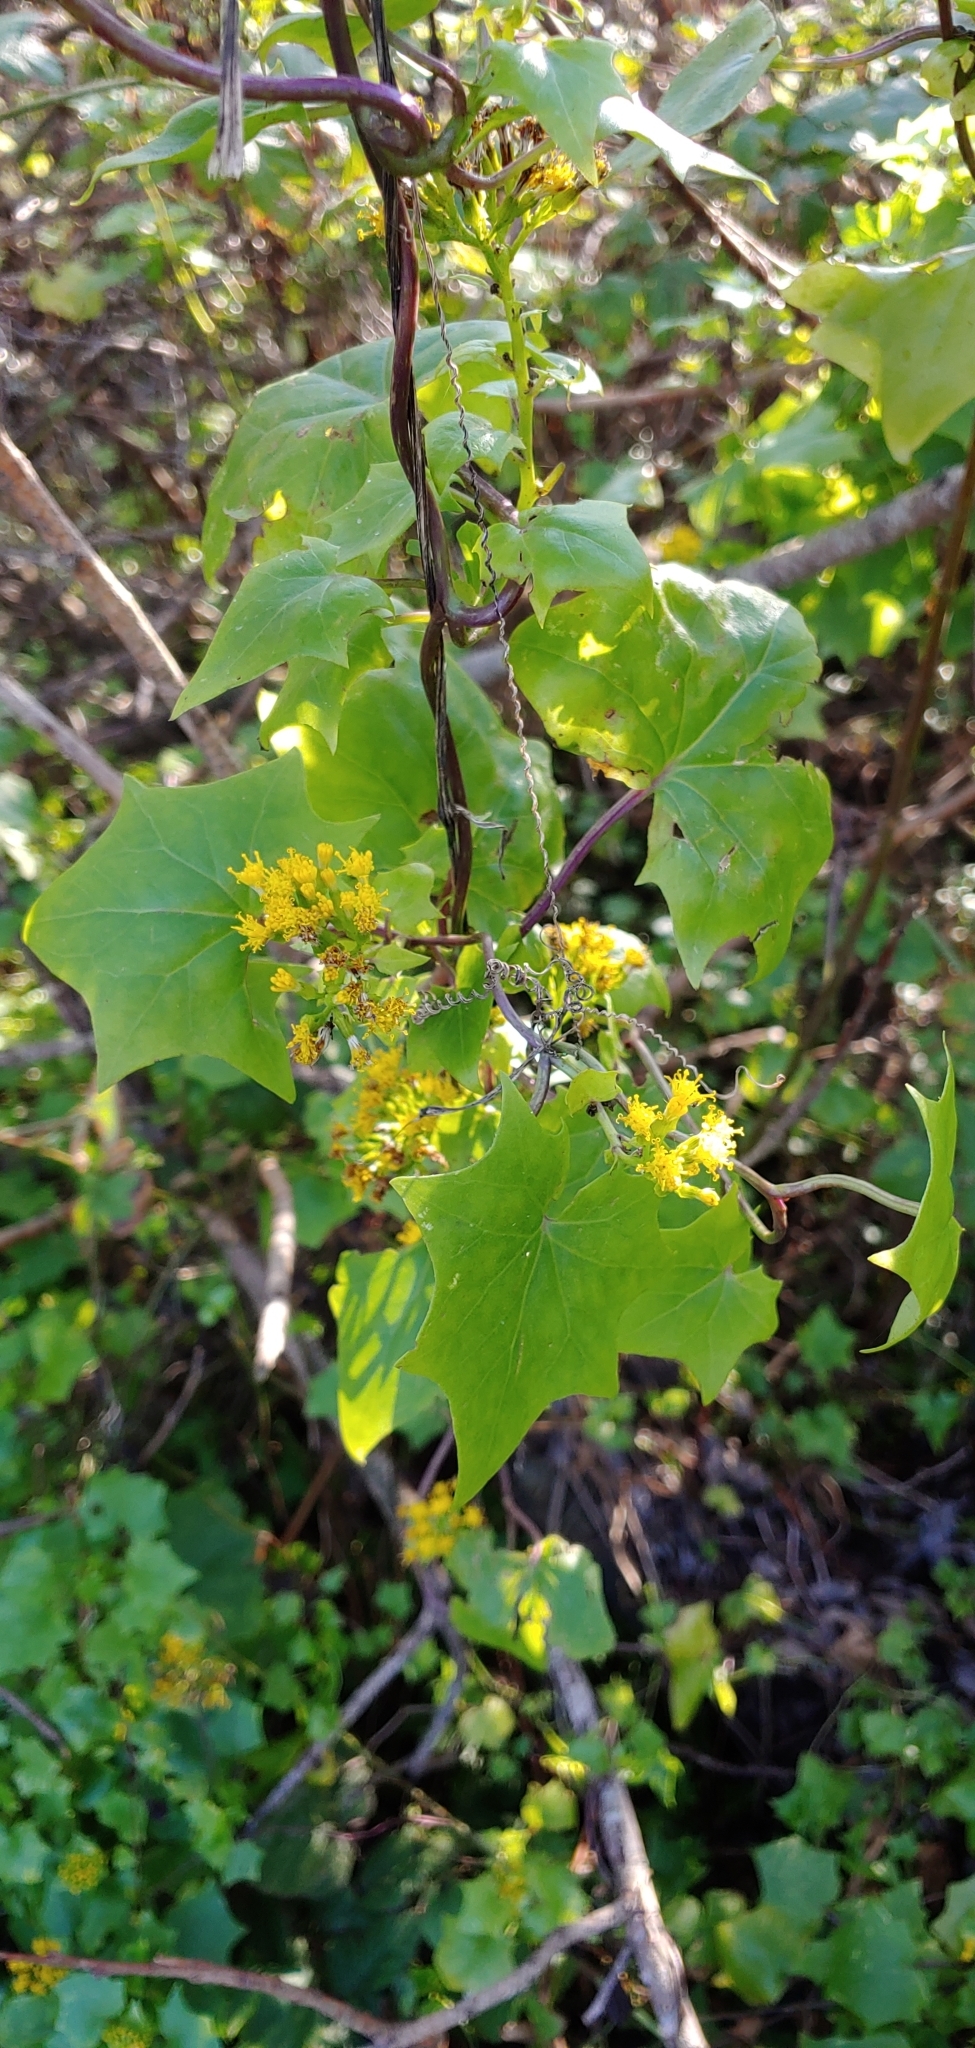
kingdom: Plantae
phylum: Tracheophyta
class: Magnoliopsida
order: Asterales
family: Asteraceae
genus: Delairea
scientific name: Delairea odorata
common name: Cape-ivy
